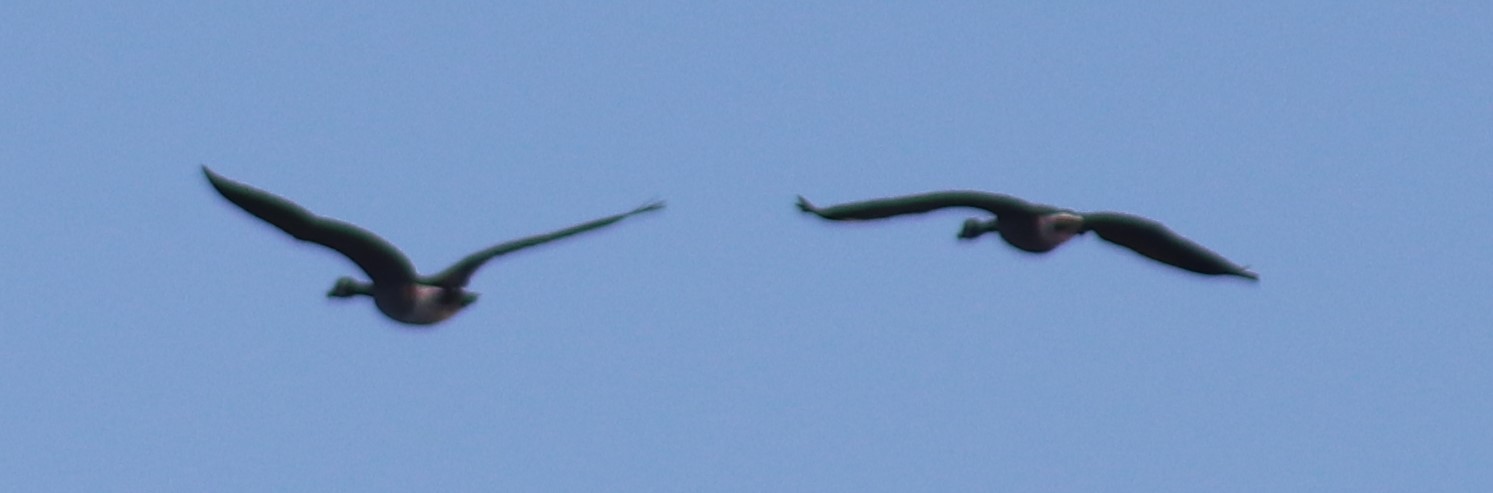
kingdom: Animalia
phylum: Chordata
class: Aves
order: Anseriformes
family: Anatidae
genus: Branta
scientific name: Branta canadensis
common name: Canada goose
